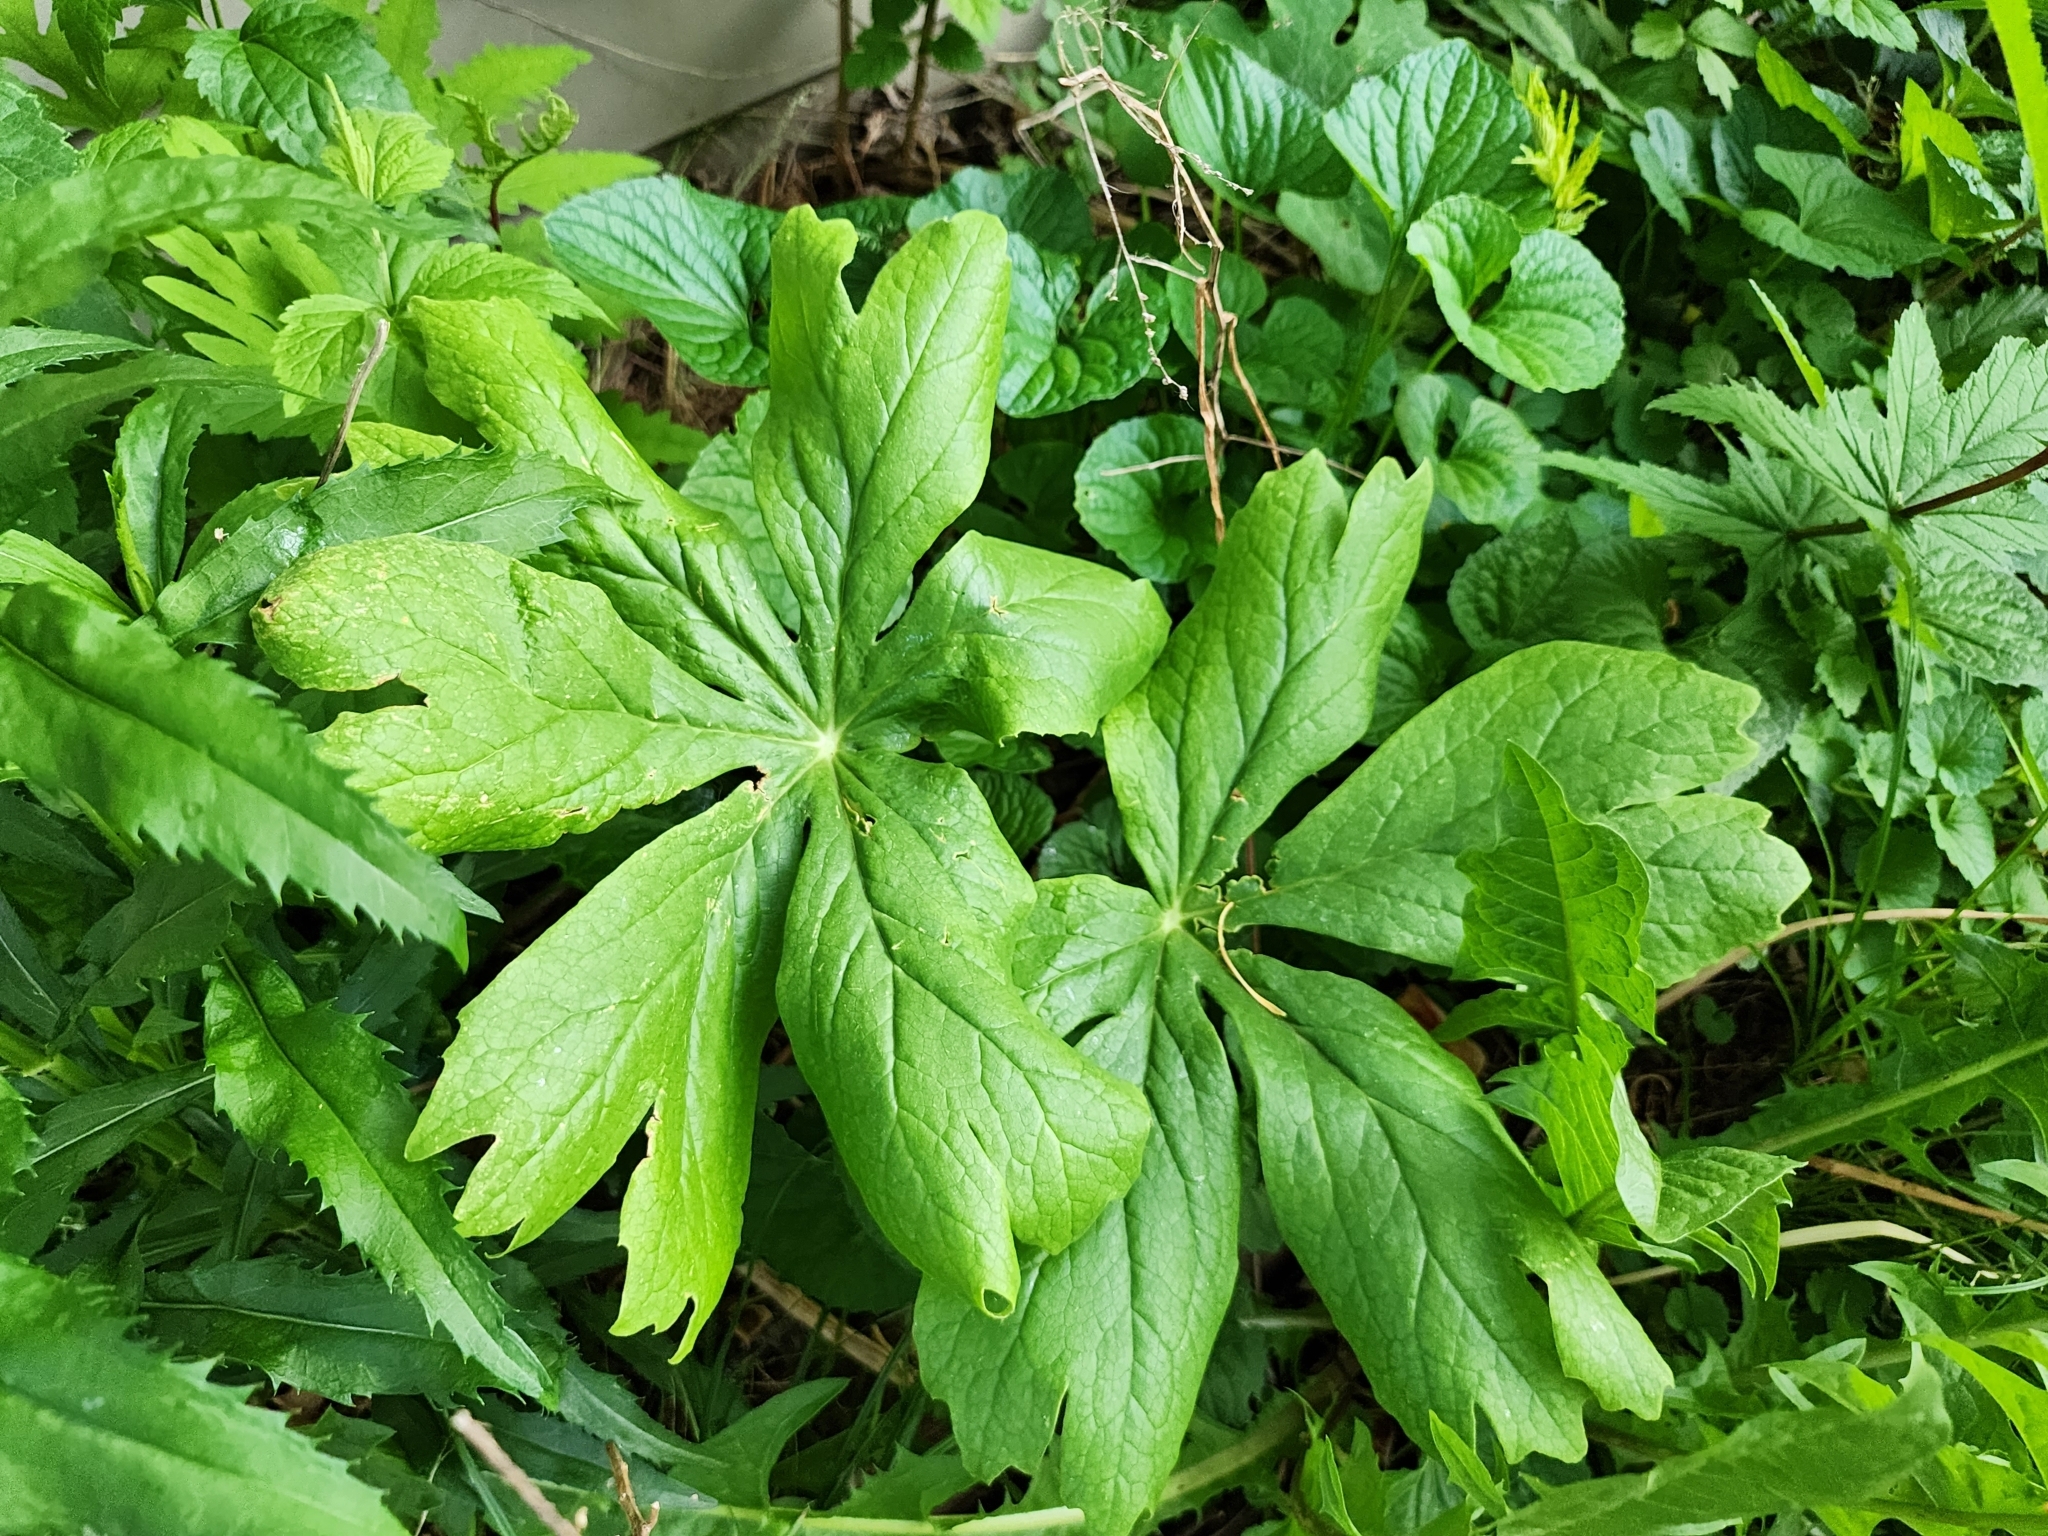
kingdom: Plantae
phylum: Tracheophyta
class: Magnoliopsida
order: Ranunculales
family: Berberidaceae
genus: Podophyllum
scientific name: Podophyllum peltatum
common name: Wild mandrake
